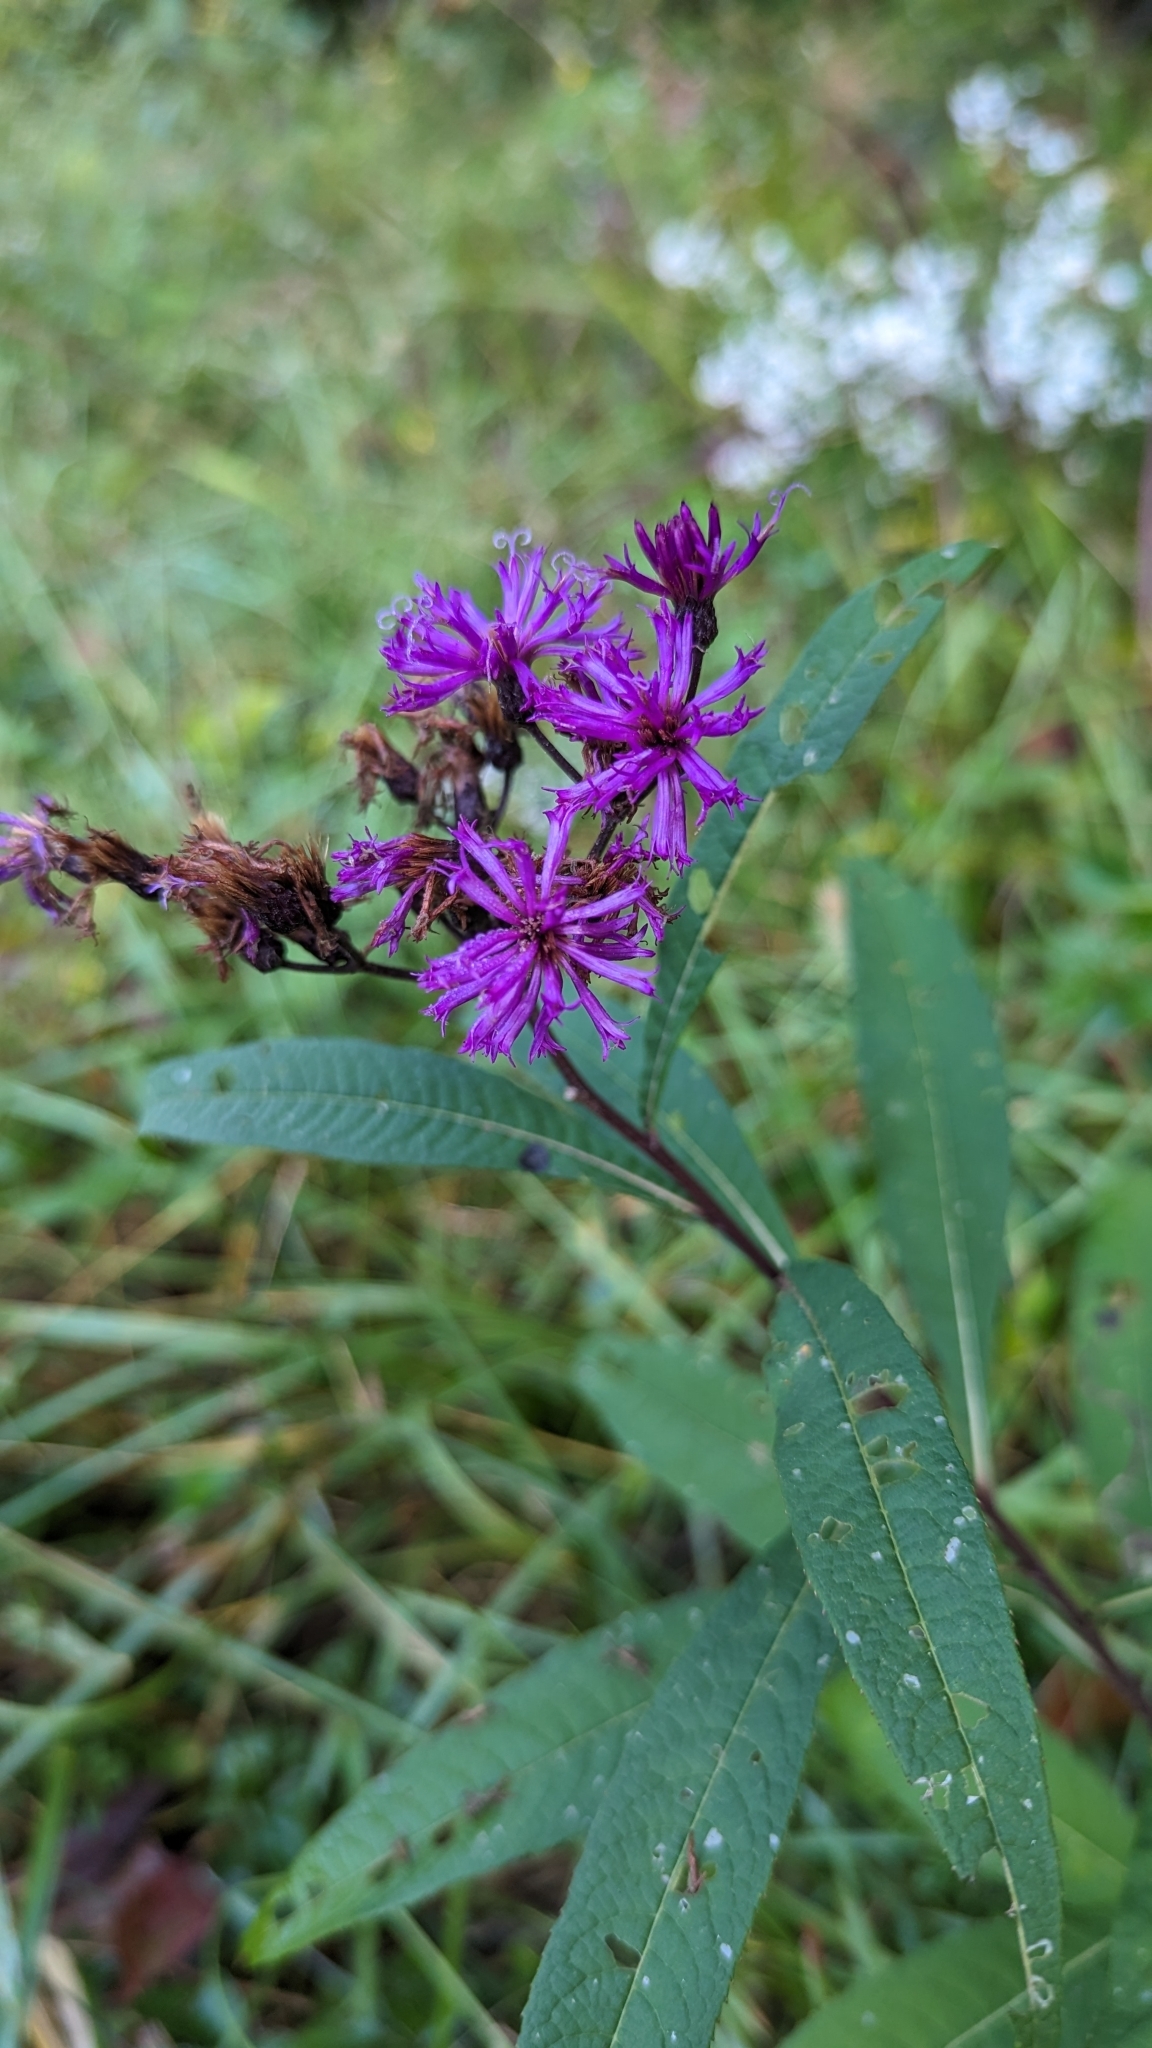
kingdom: Plantae
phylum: Tracheophyta
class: Magnoliopsida
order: Asterales
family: Asteraceae
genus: Vernonia
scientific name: Vernonia gigantea
